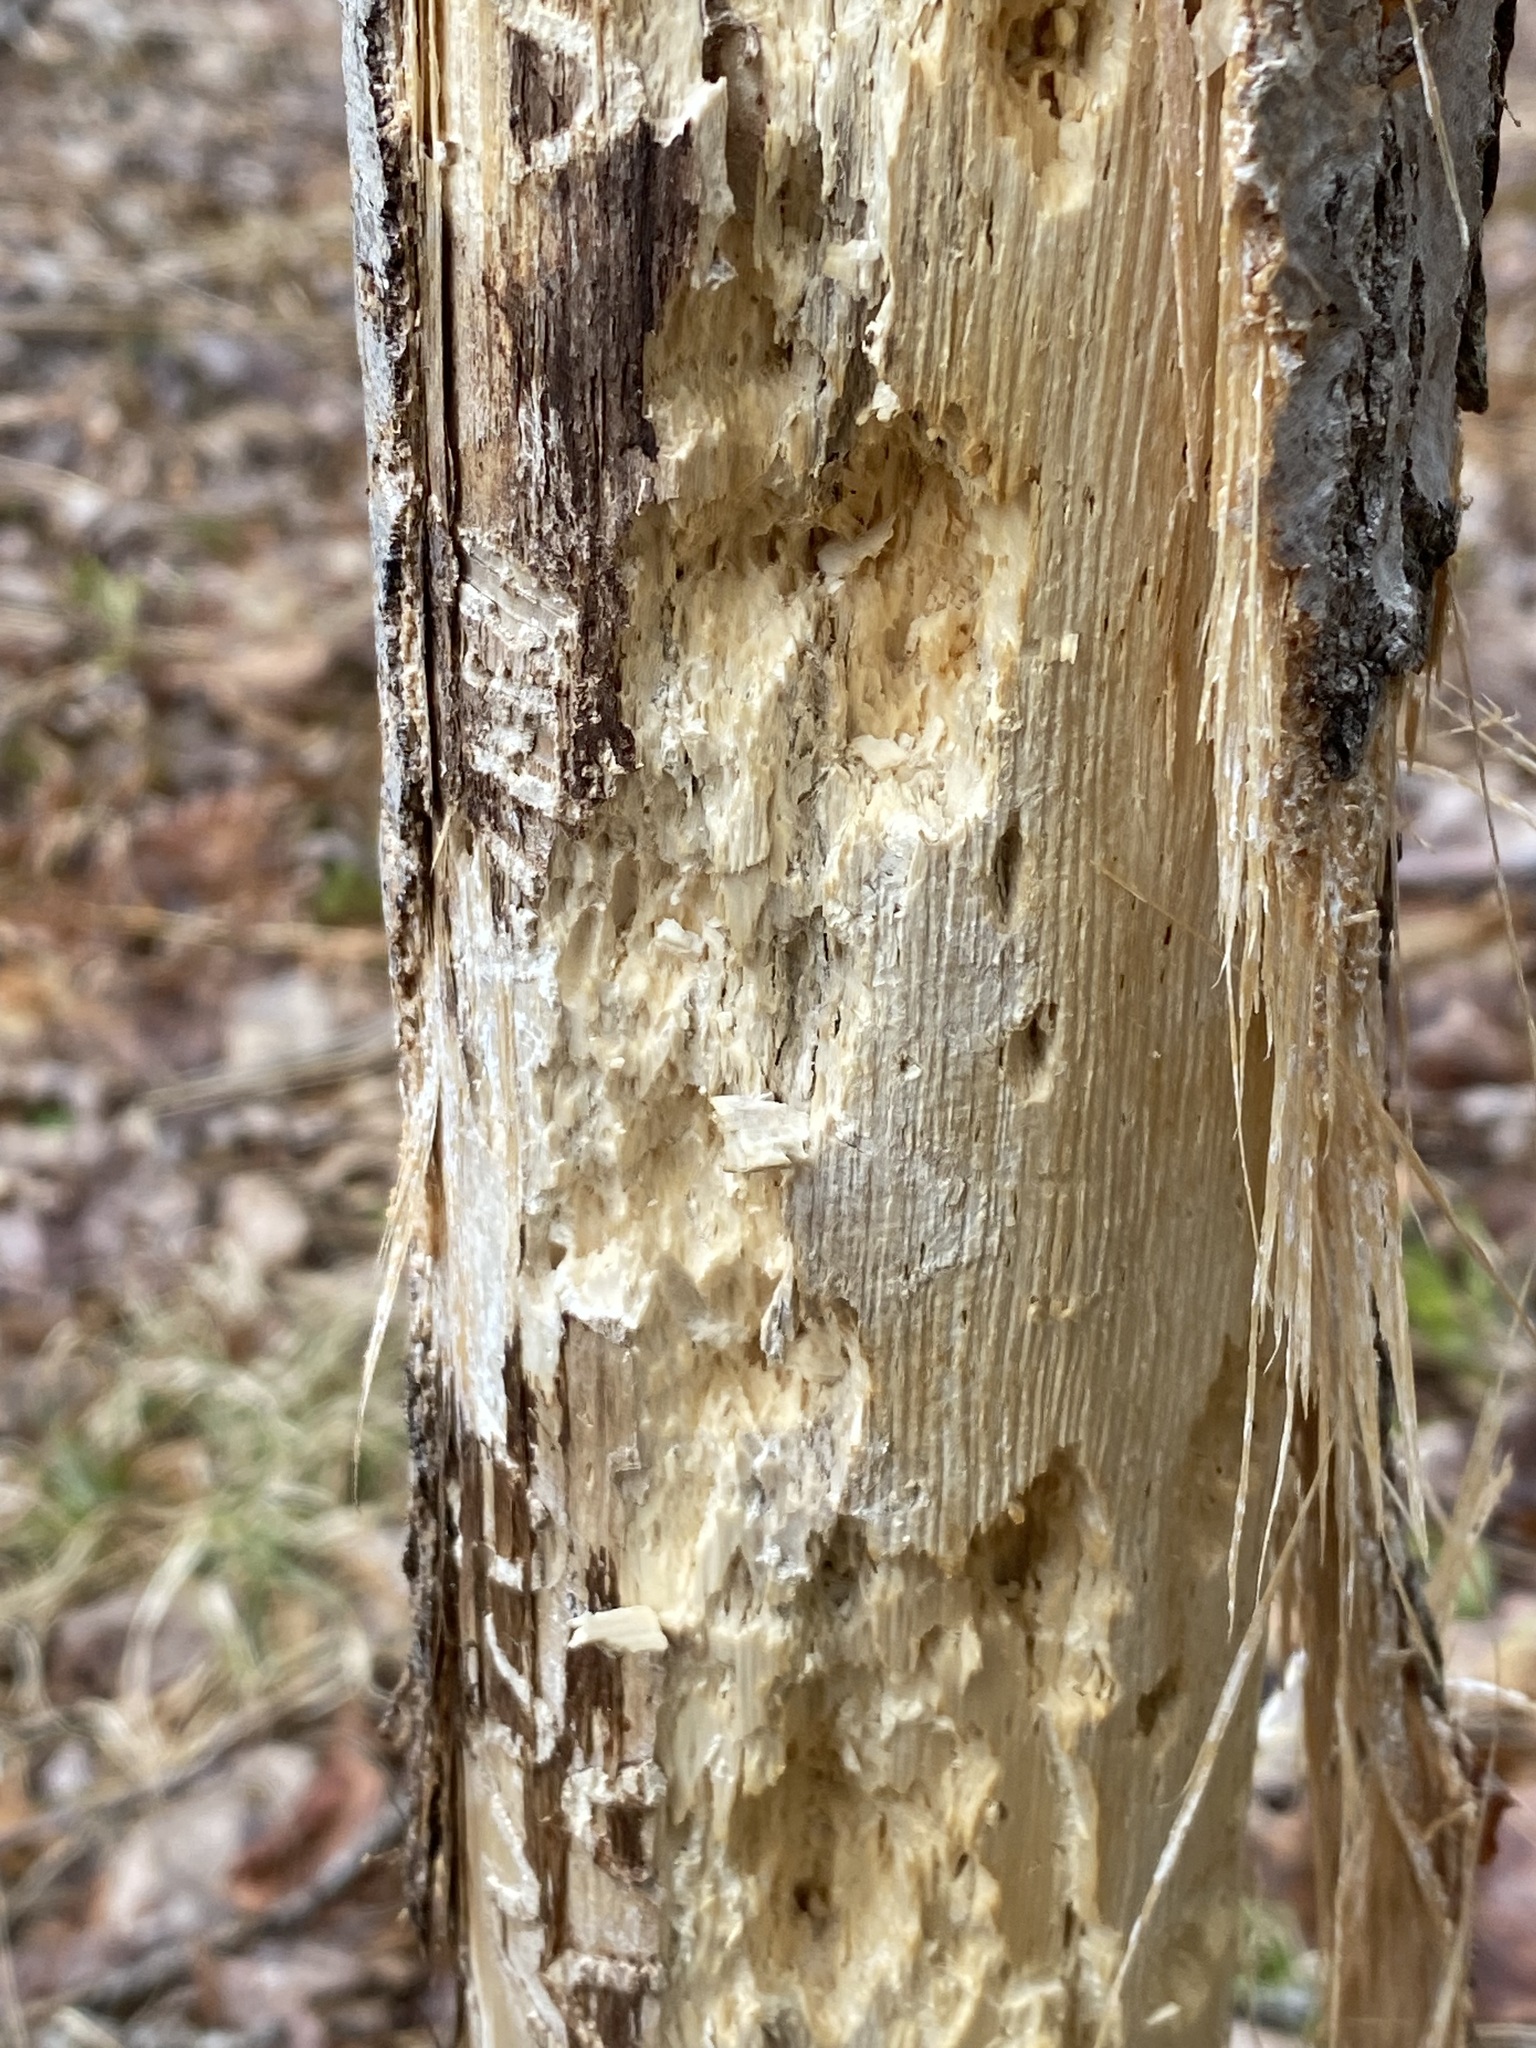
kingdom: Animalia
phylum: Chordata
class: Aves
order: Piciformes
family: Picidae
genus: Dryocopus
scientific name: Dryocopus pileatus
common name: Pileated woodpecker
